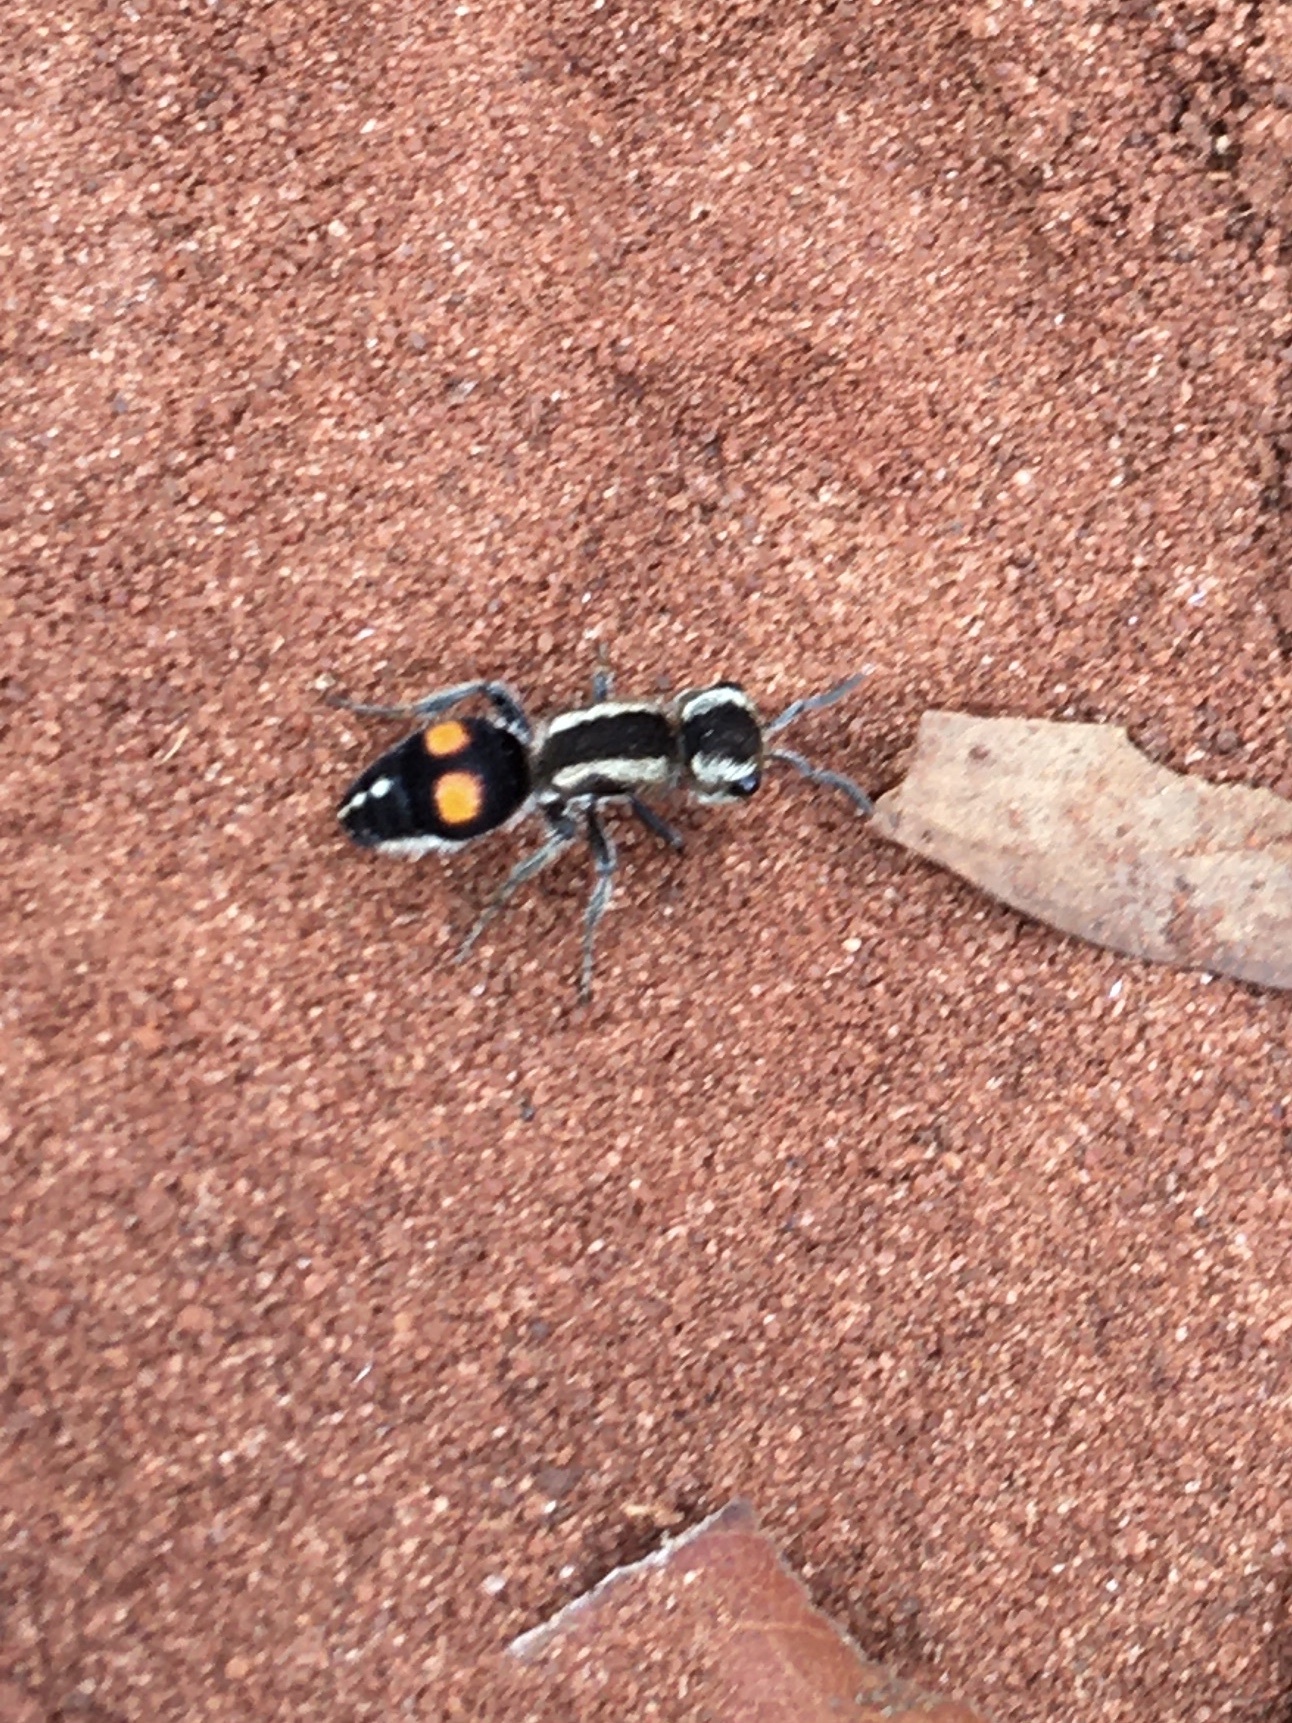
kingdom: Animalia
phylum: Arthropoda
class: Insecta
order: Hymenoptera
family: Mutillidae
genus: Darditilla
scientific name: Darditilla araxa
